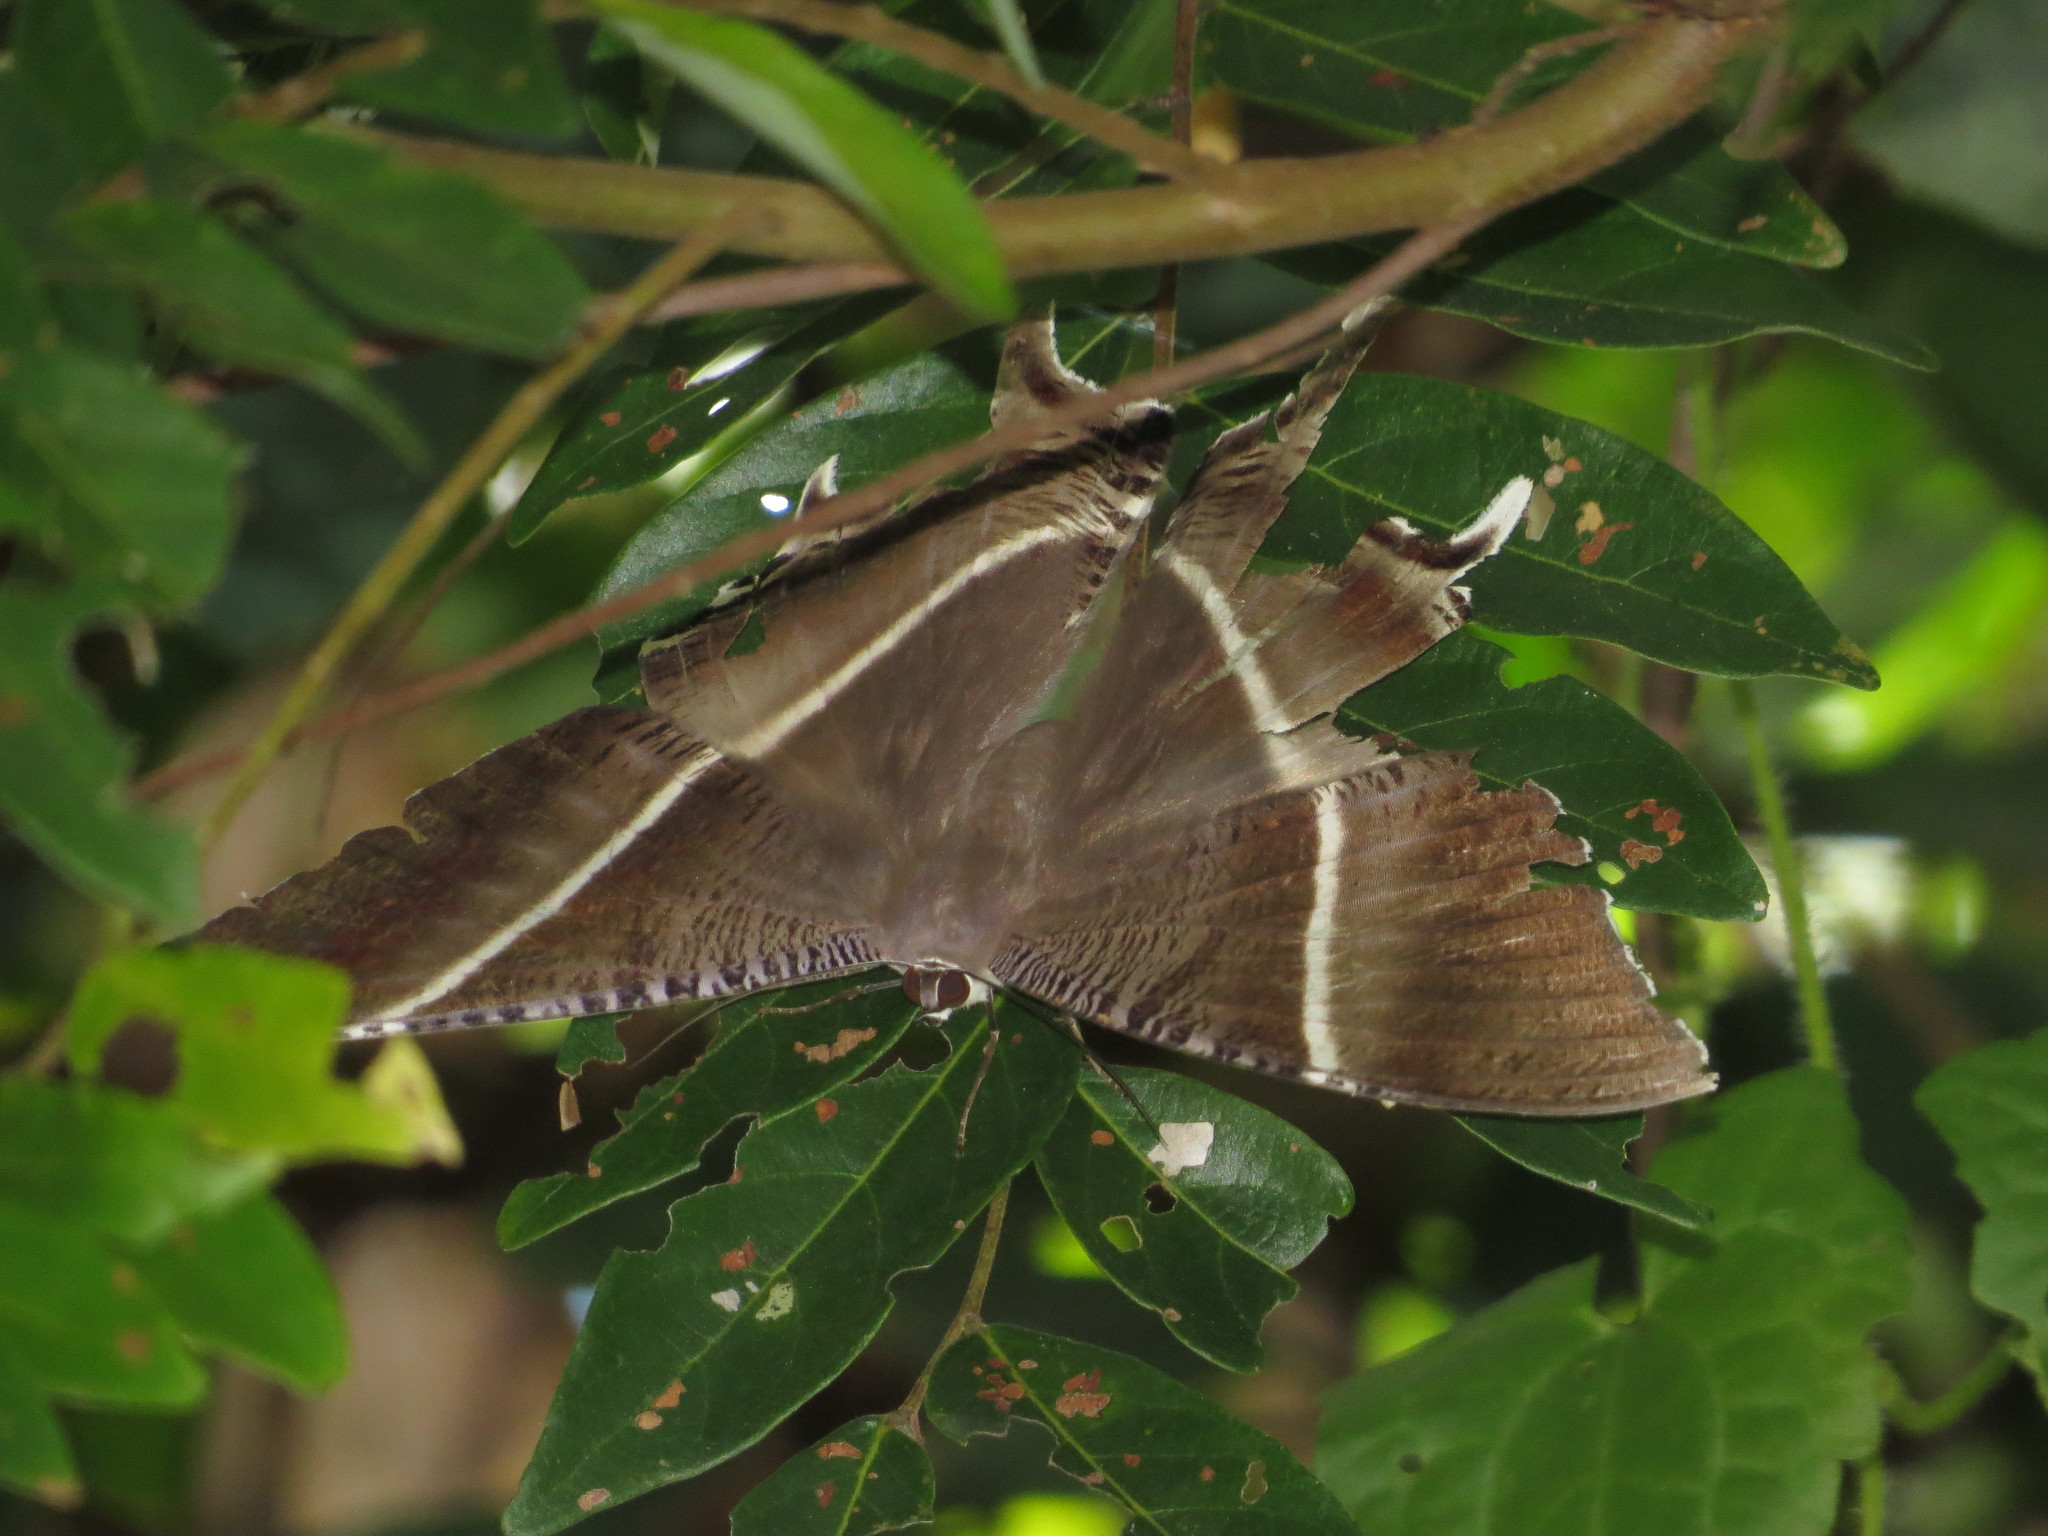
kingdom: Animalia
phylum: Arthropoda
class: Insecta
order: Lepidoptera
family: Uraniidae
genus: Lyssa
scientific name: Lyssa zampa
